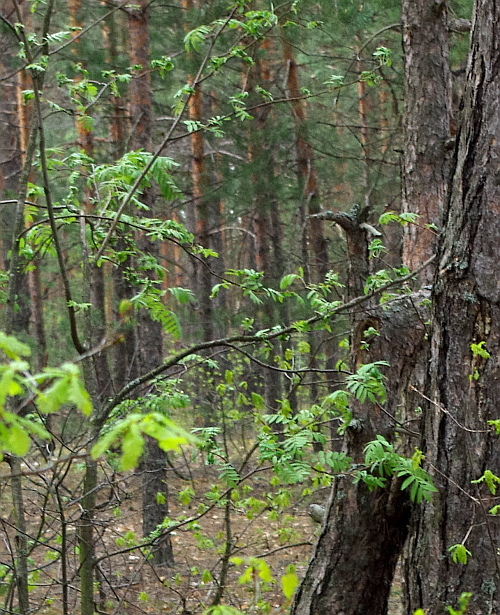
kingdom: Plantae
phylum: Tracheophyta
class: Magnoliopsida
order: Rosales
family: Rosaceae
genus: Sorbus
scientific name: Sorbus aucuparia
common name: Rowan
